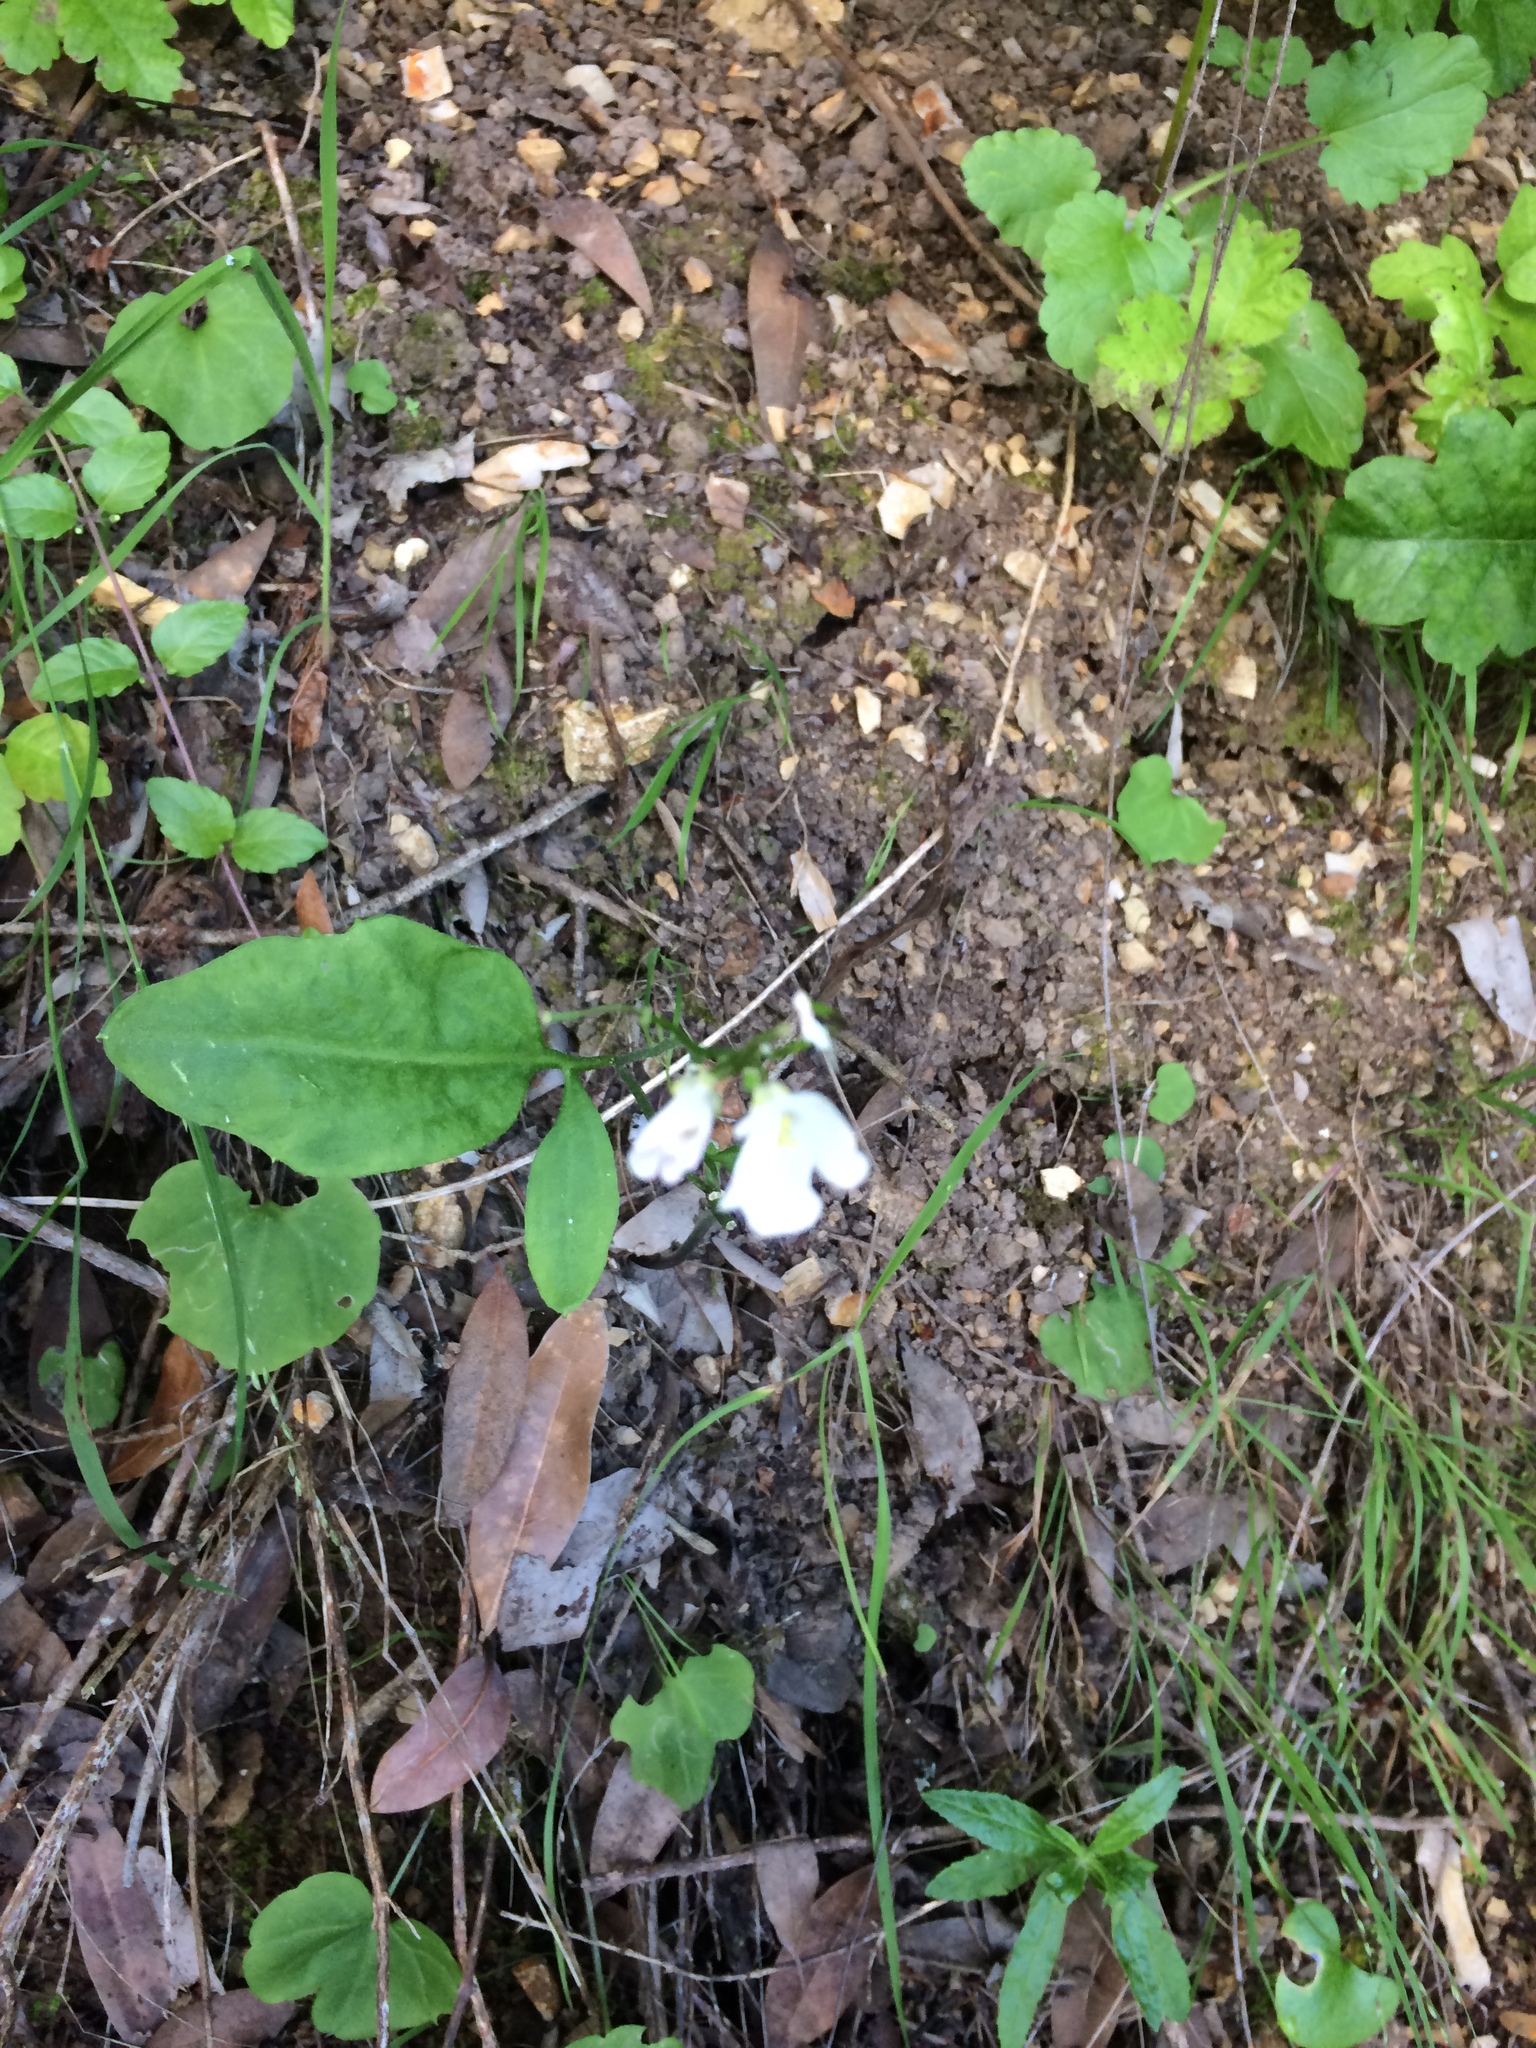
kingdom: Plantae
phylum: Tracheophyta
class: Magnoliopsida
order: Brassicales
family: Brassicaceae
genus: Cardamine
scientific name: Cardamine californica
